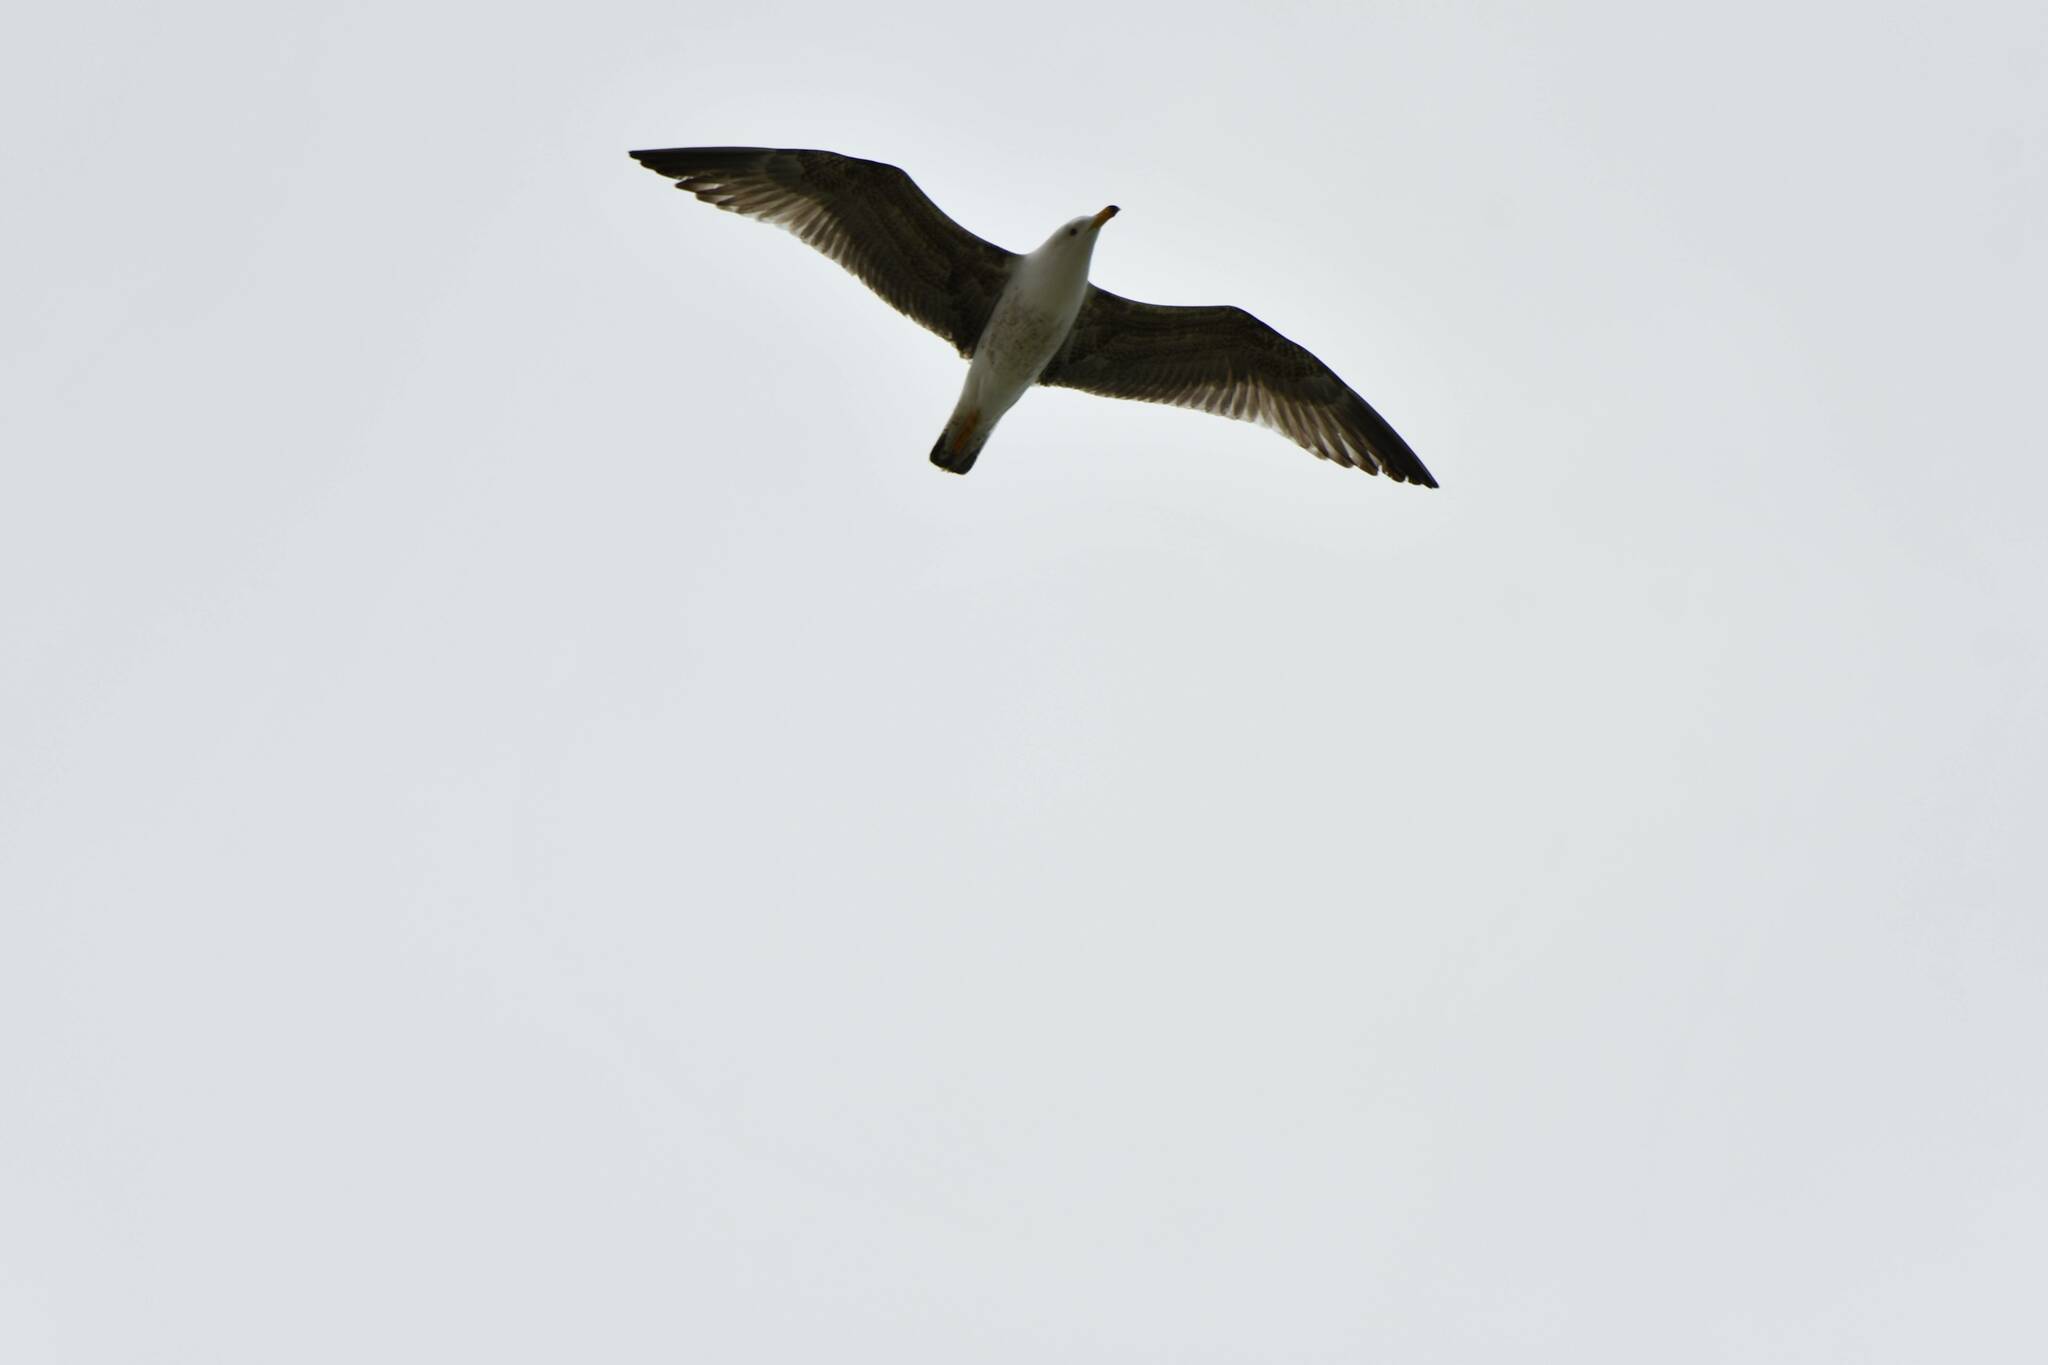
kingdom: Animalia
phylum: Chordata
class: Aves
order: Charadriiformes
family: Laridae
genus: Larus
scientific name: Larus michahellis
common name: Yellow-legged gull
